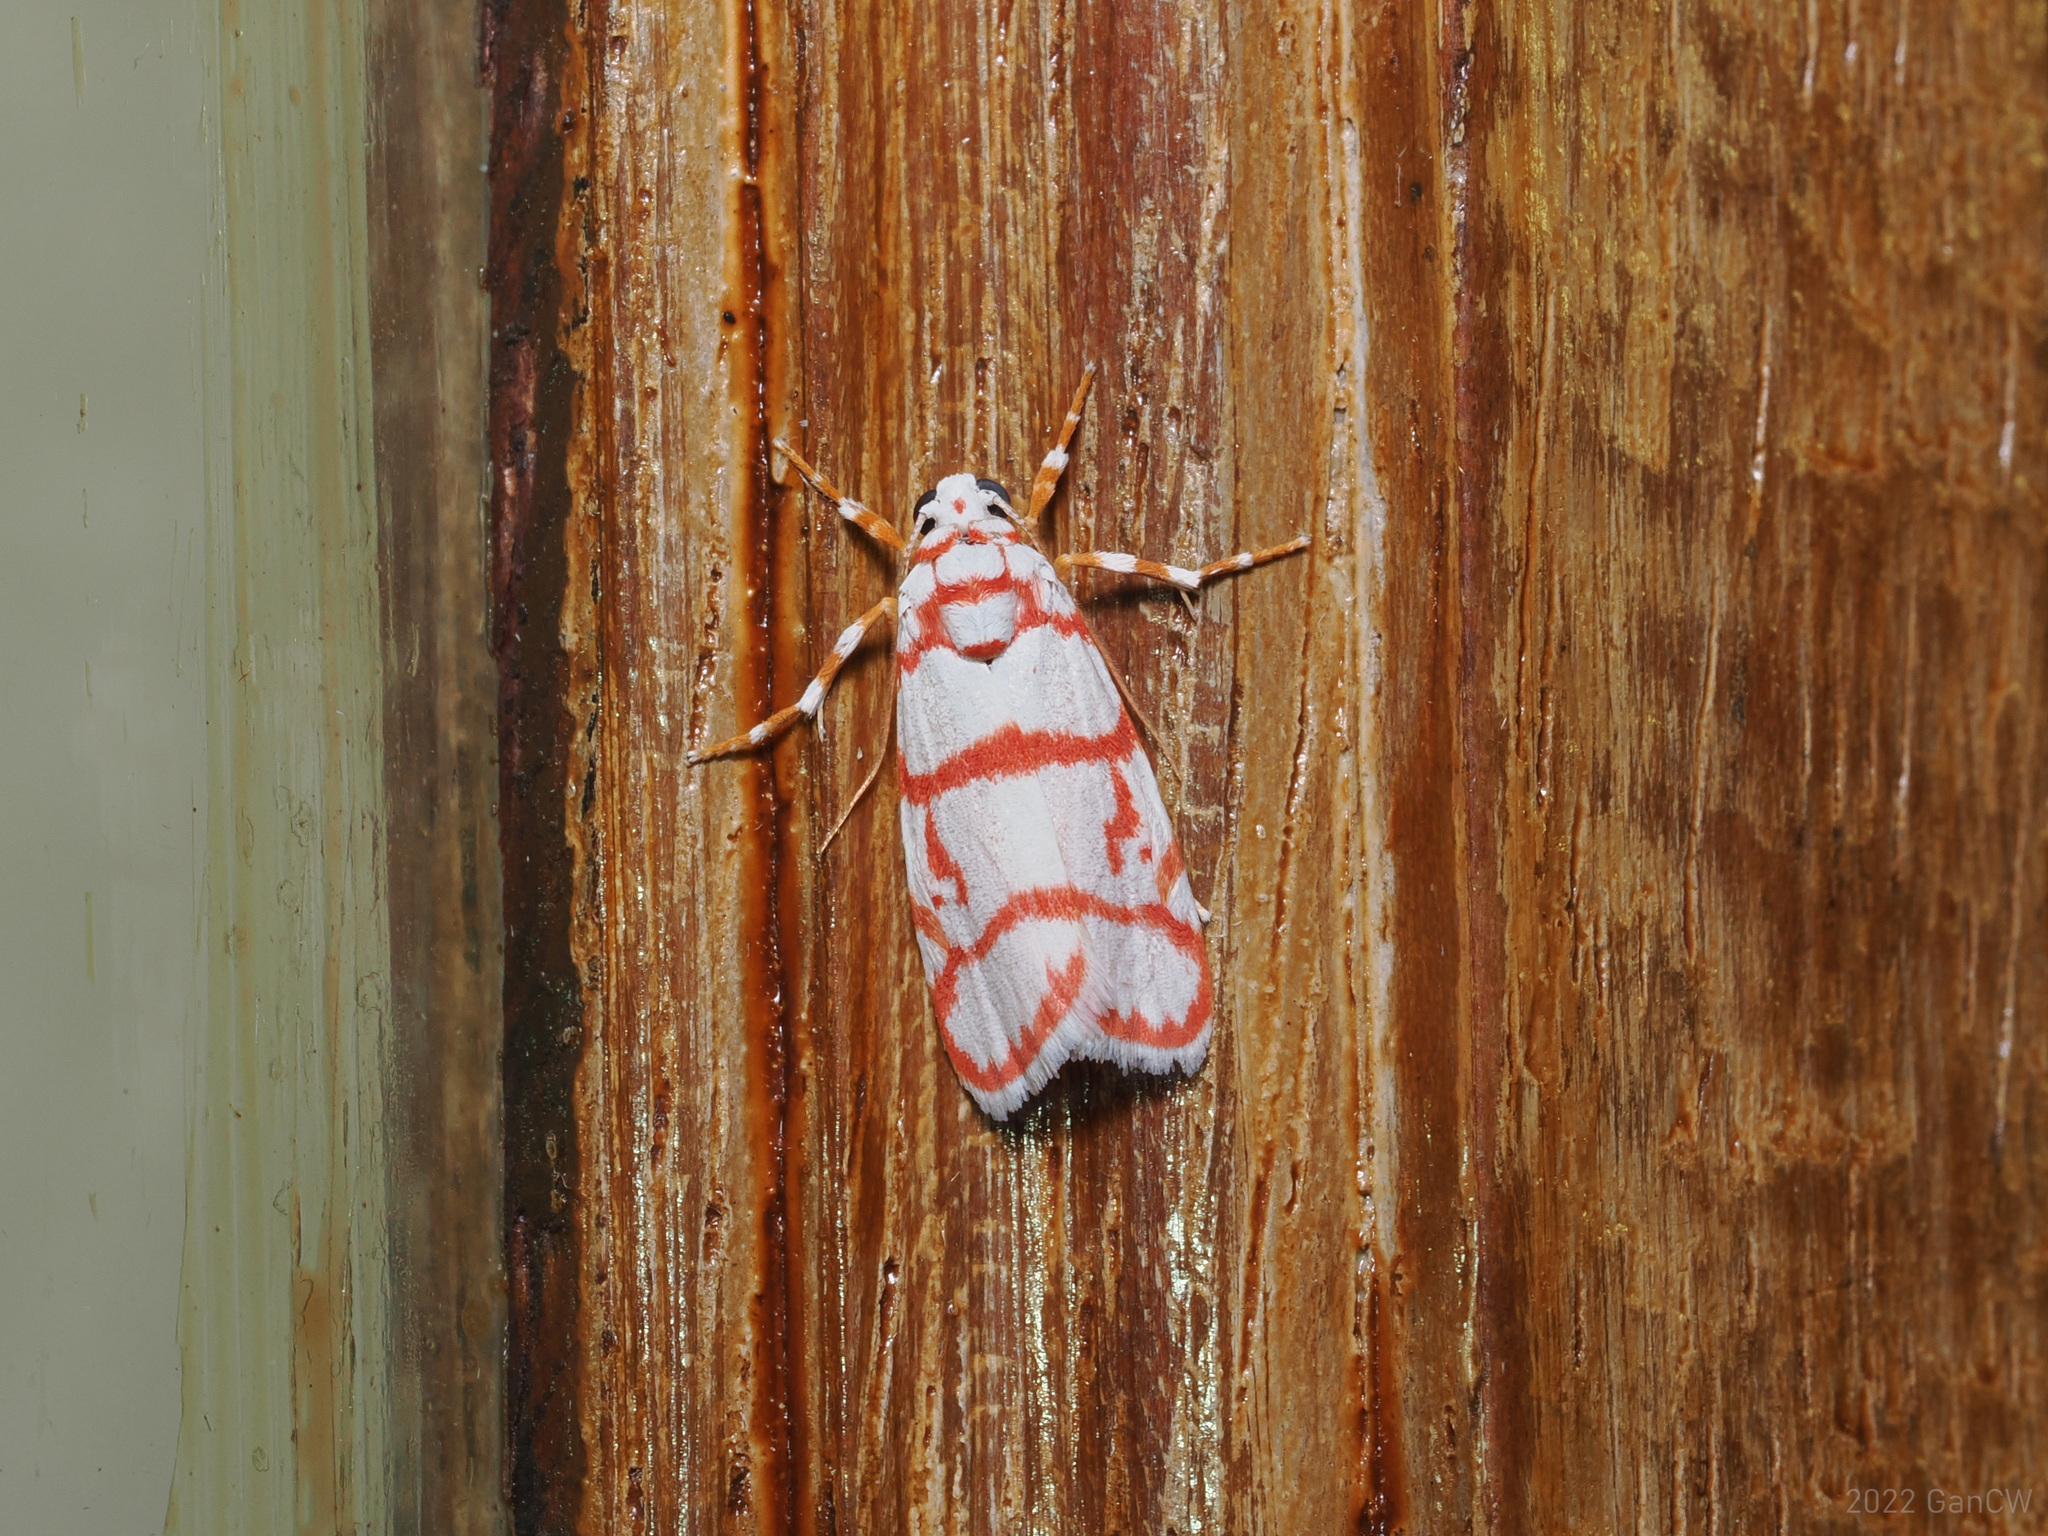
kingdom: Animalia
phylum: Arthropoda
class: Insecta
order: Lepidoptera
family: Erebidae
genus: Cyana
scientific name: Cyana pudens
